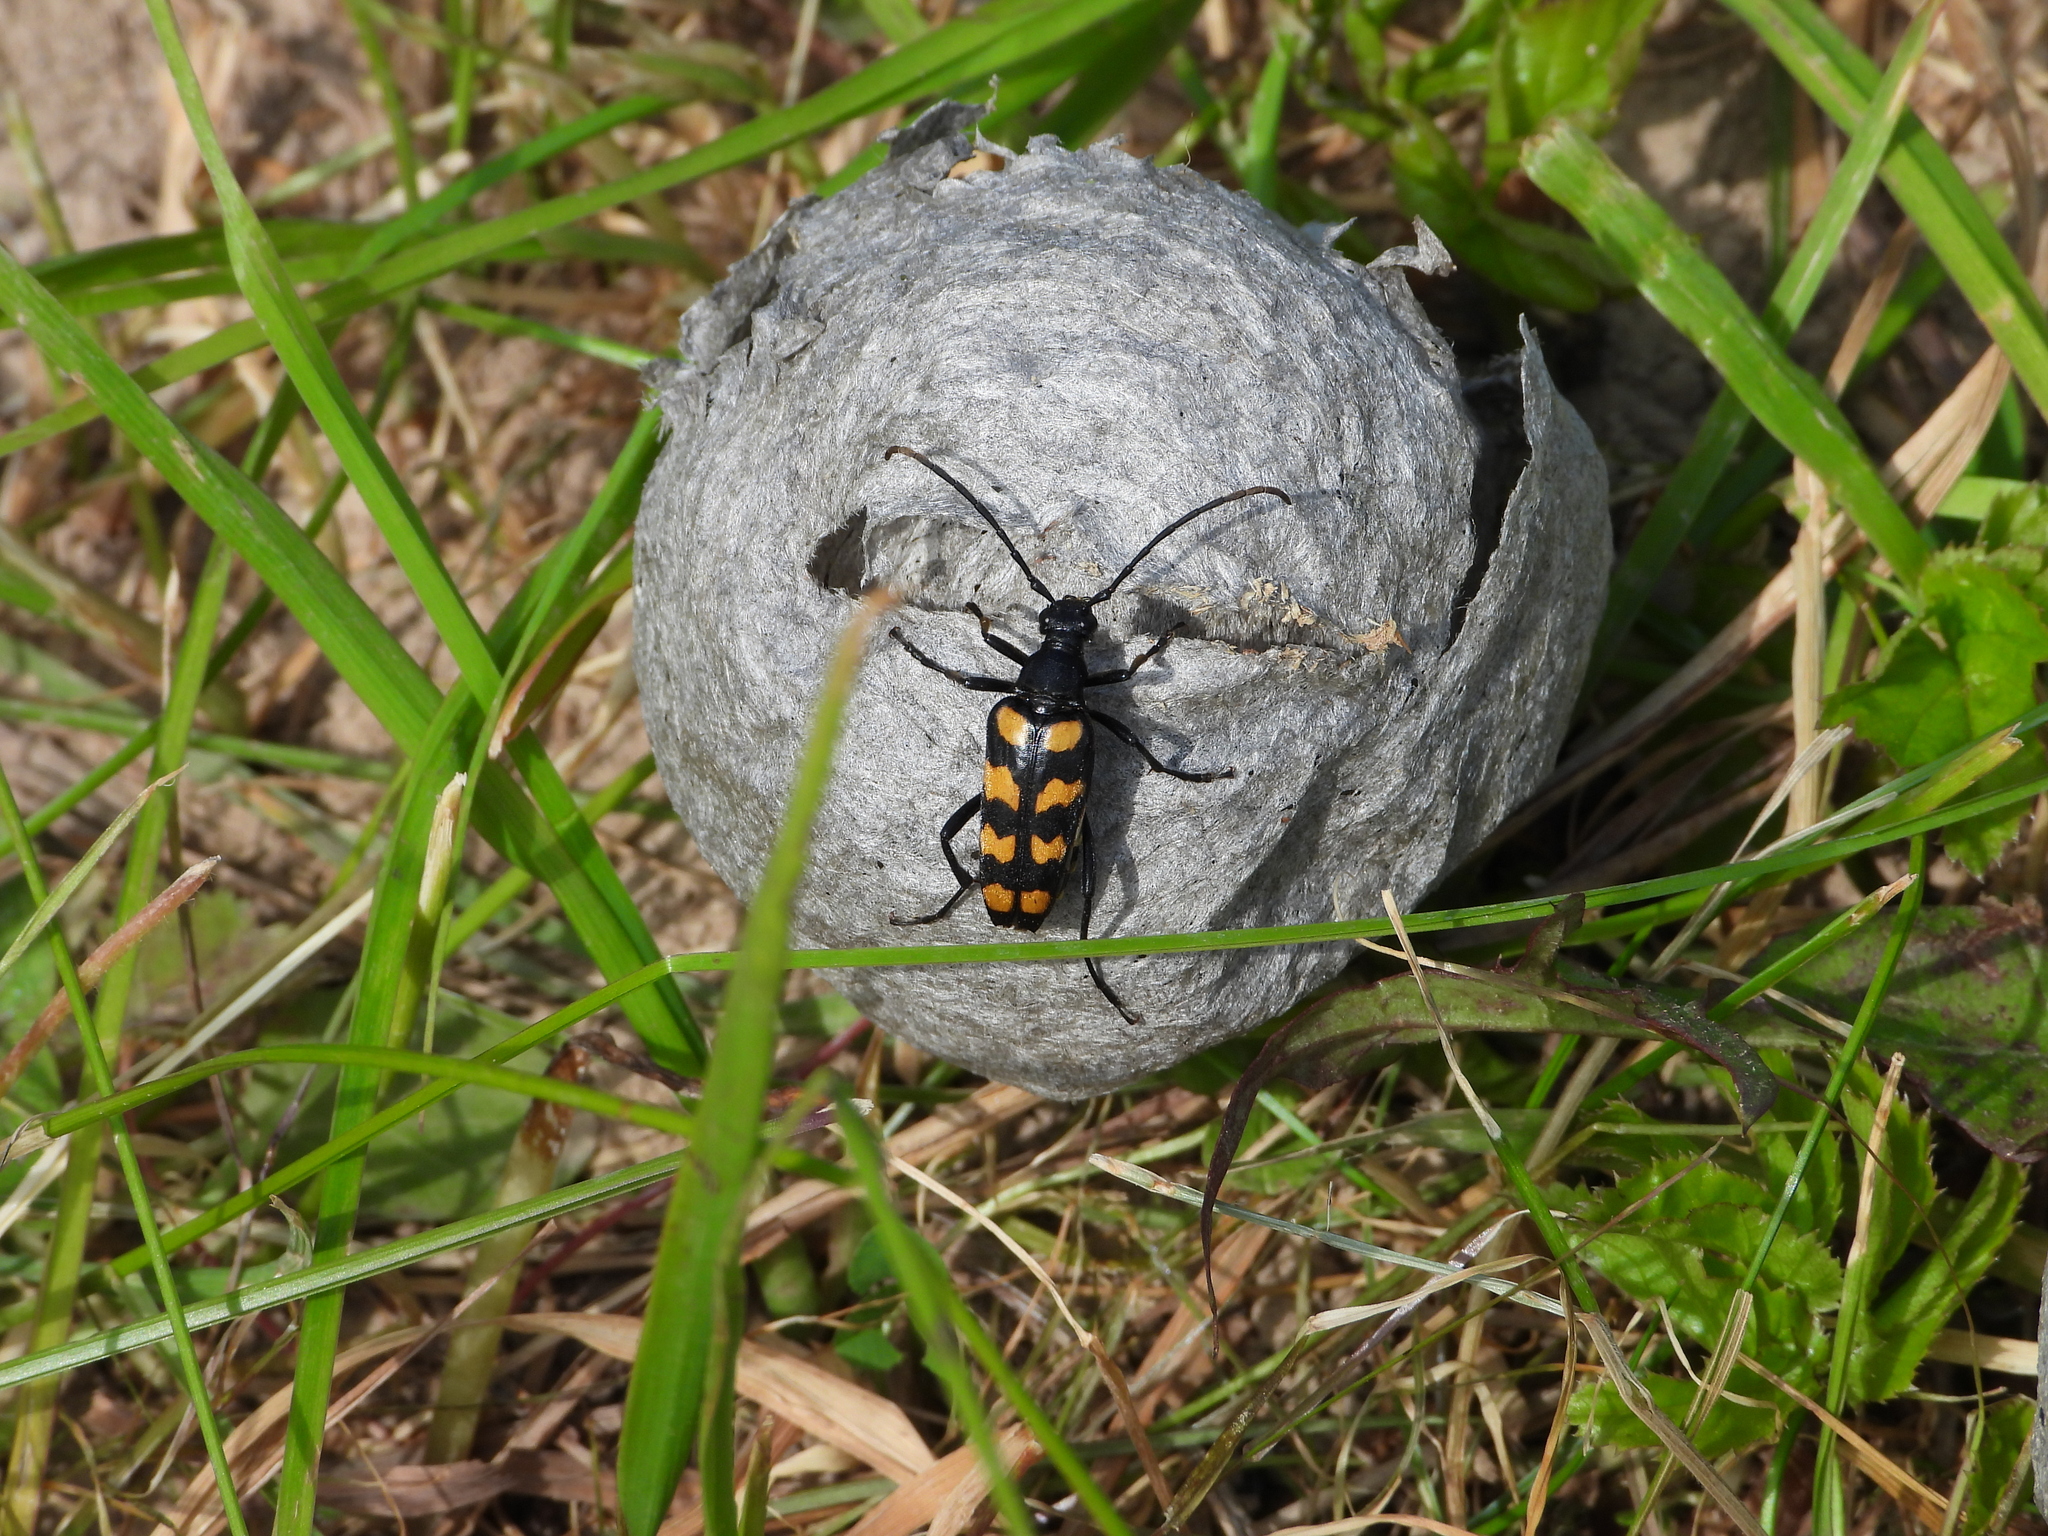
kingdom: Animalia
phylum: Arthropoda
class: Insecta
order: Coleoptera
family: Cerambycidae
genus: Leptura
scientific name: Leptura quadrifasciata
